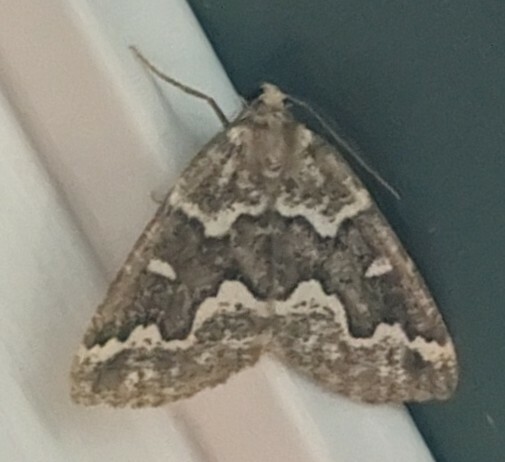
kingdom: Animalia
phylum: Arthropoda
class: Insecta
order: Lepidoptera
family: Geometridae
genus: Caripeta
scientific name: Caripeta divisata
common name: Gray spruce looper
